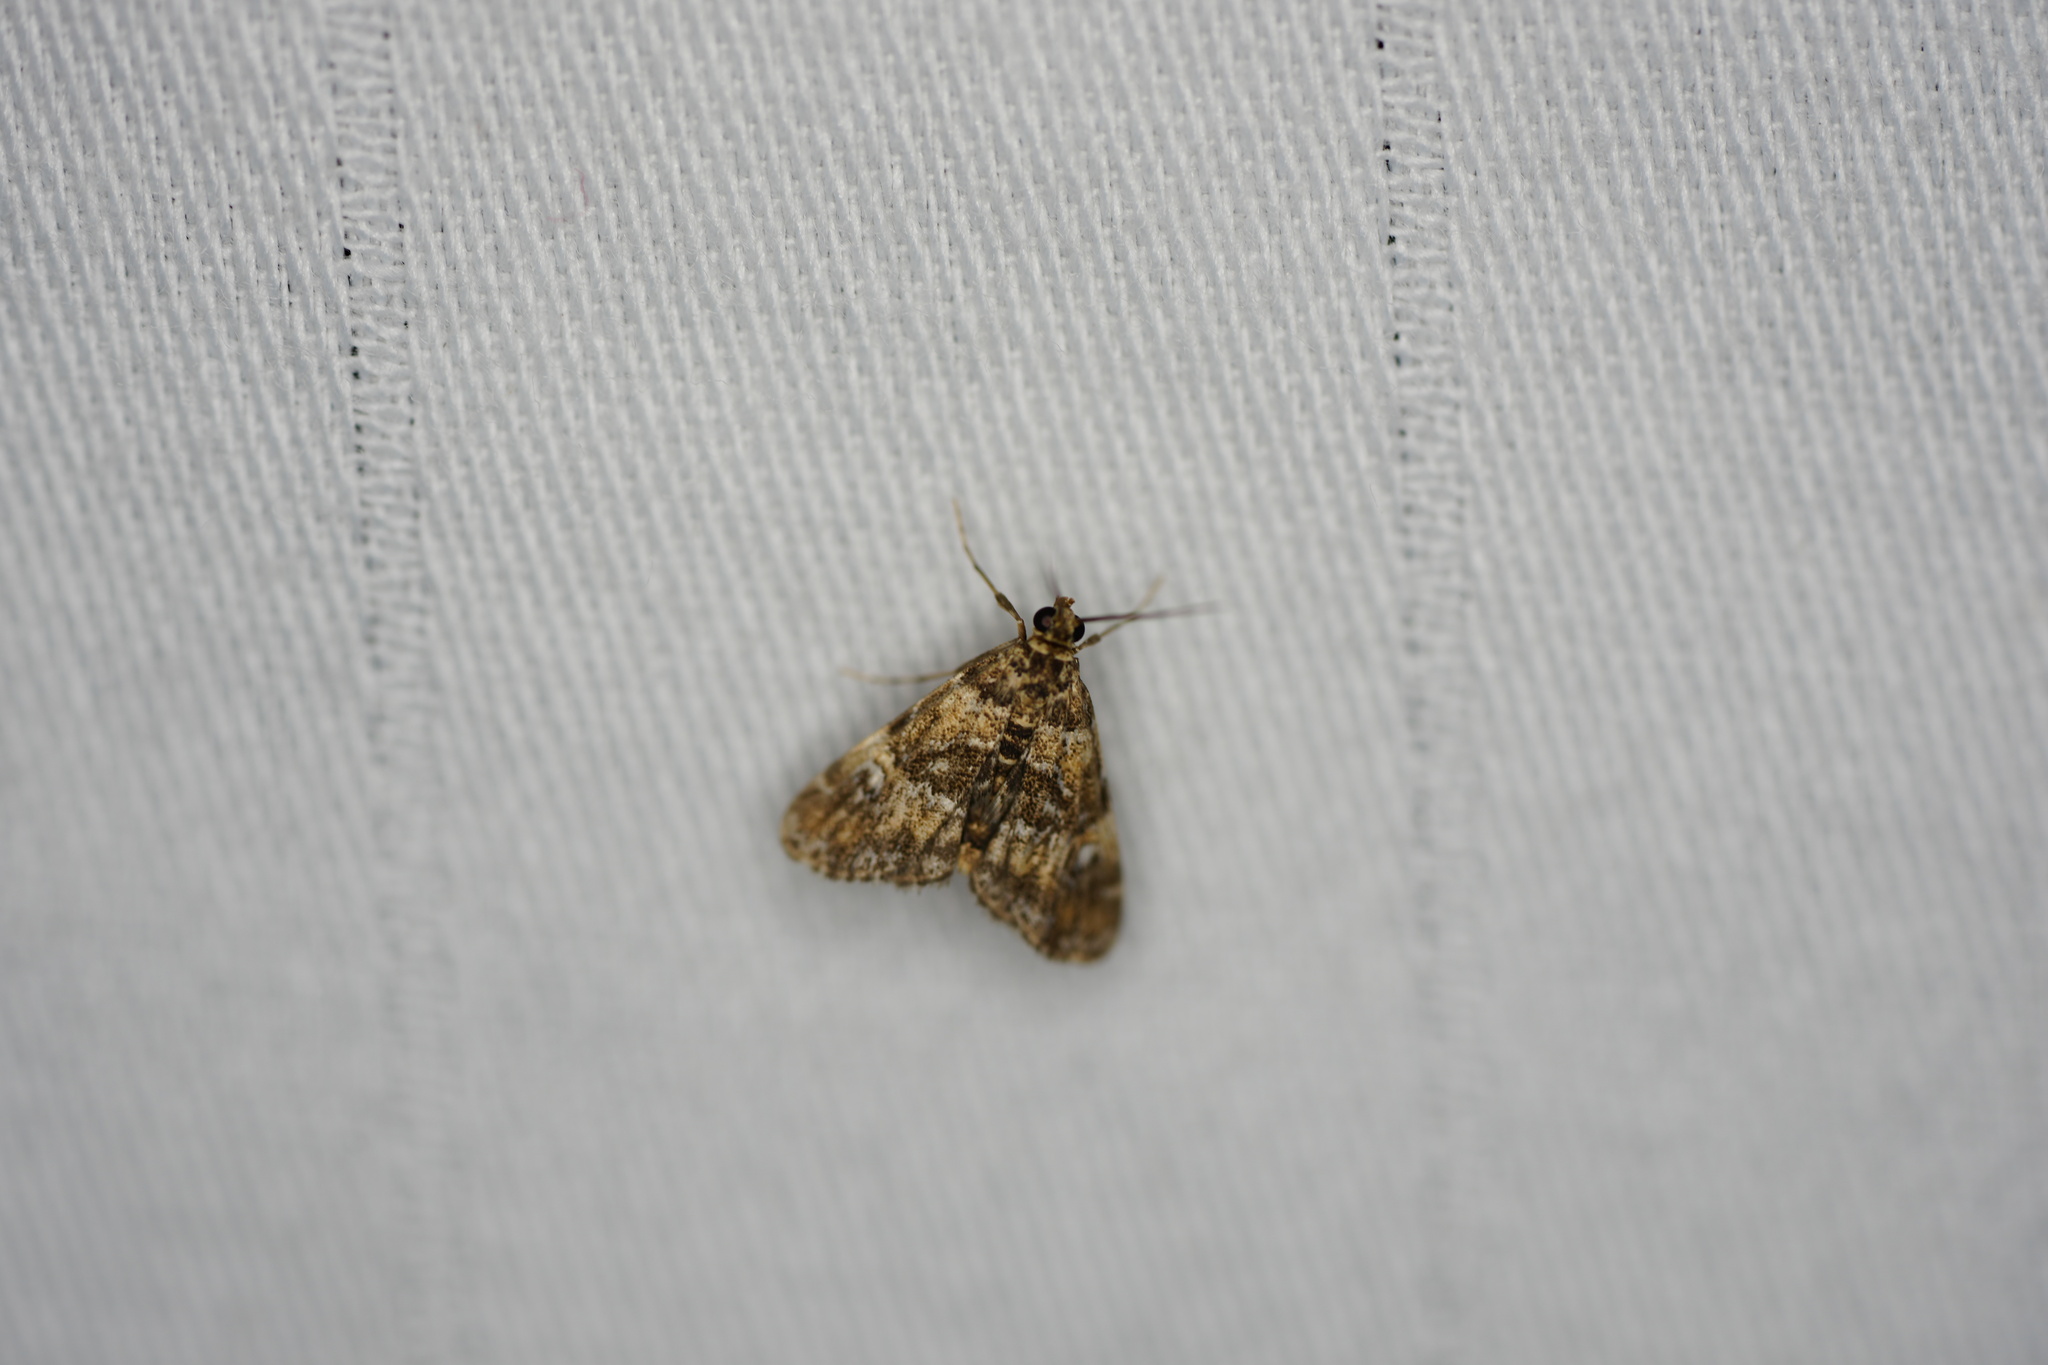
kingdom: Animalia
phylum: Arthropoda
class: Insecta
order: Lepidoptera
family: Crambidae
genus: Elophila
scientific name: Elophila obliteralis
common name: Waterlily leafcutter moth
